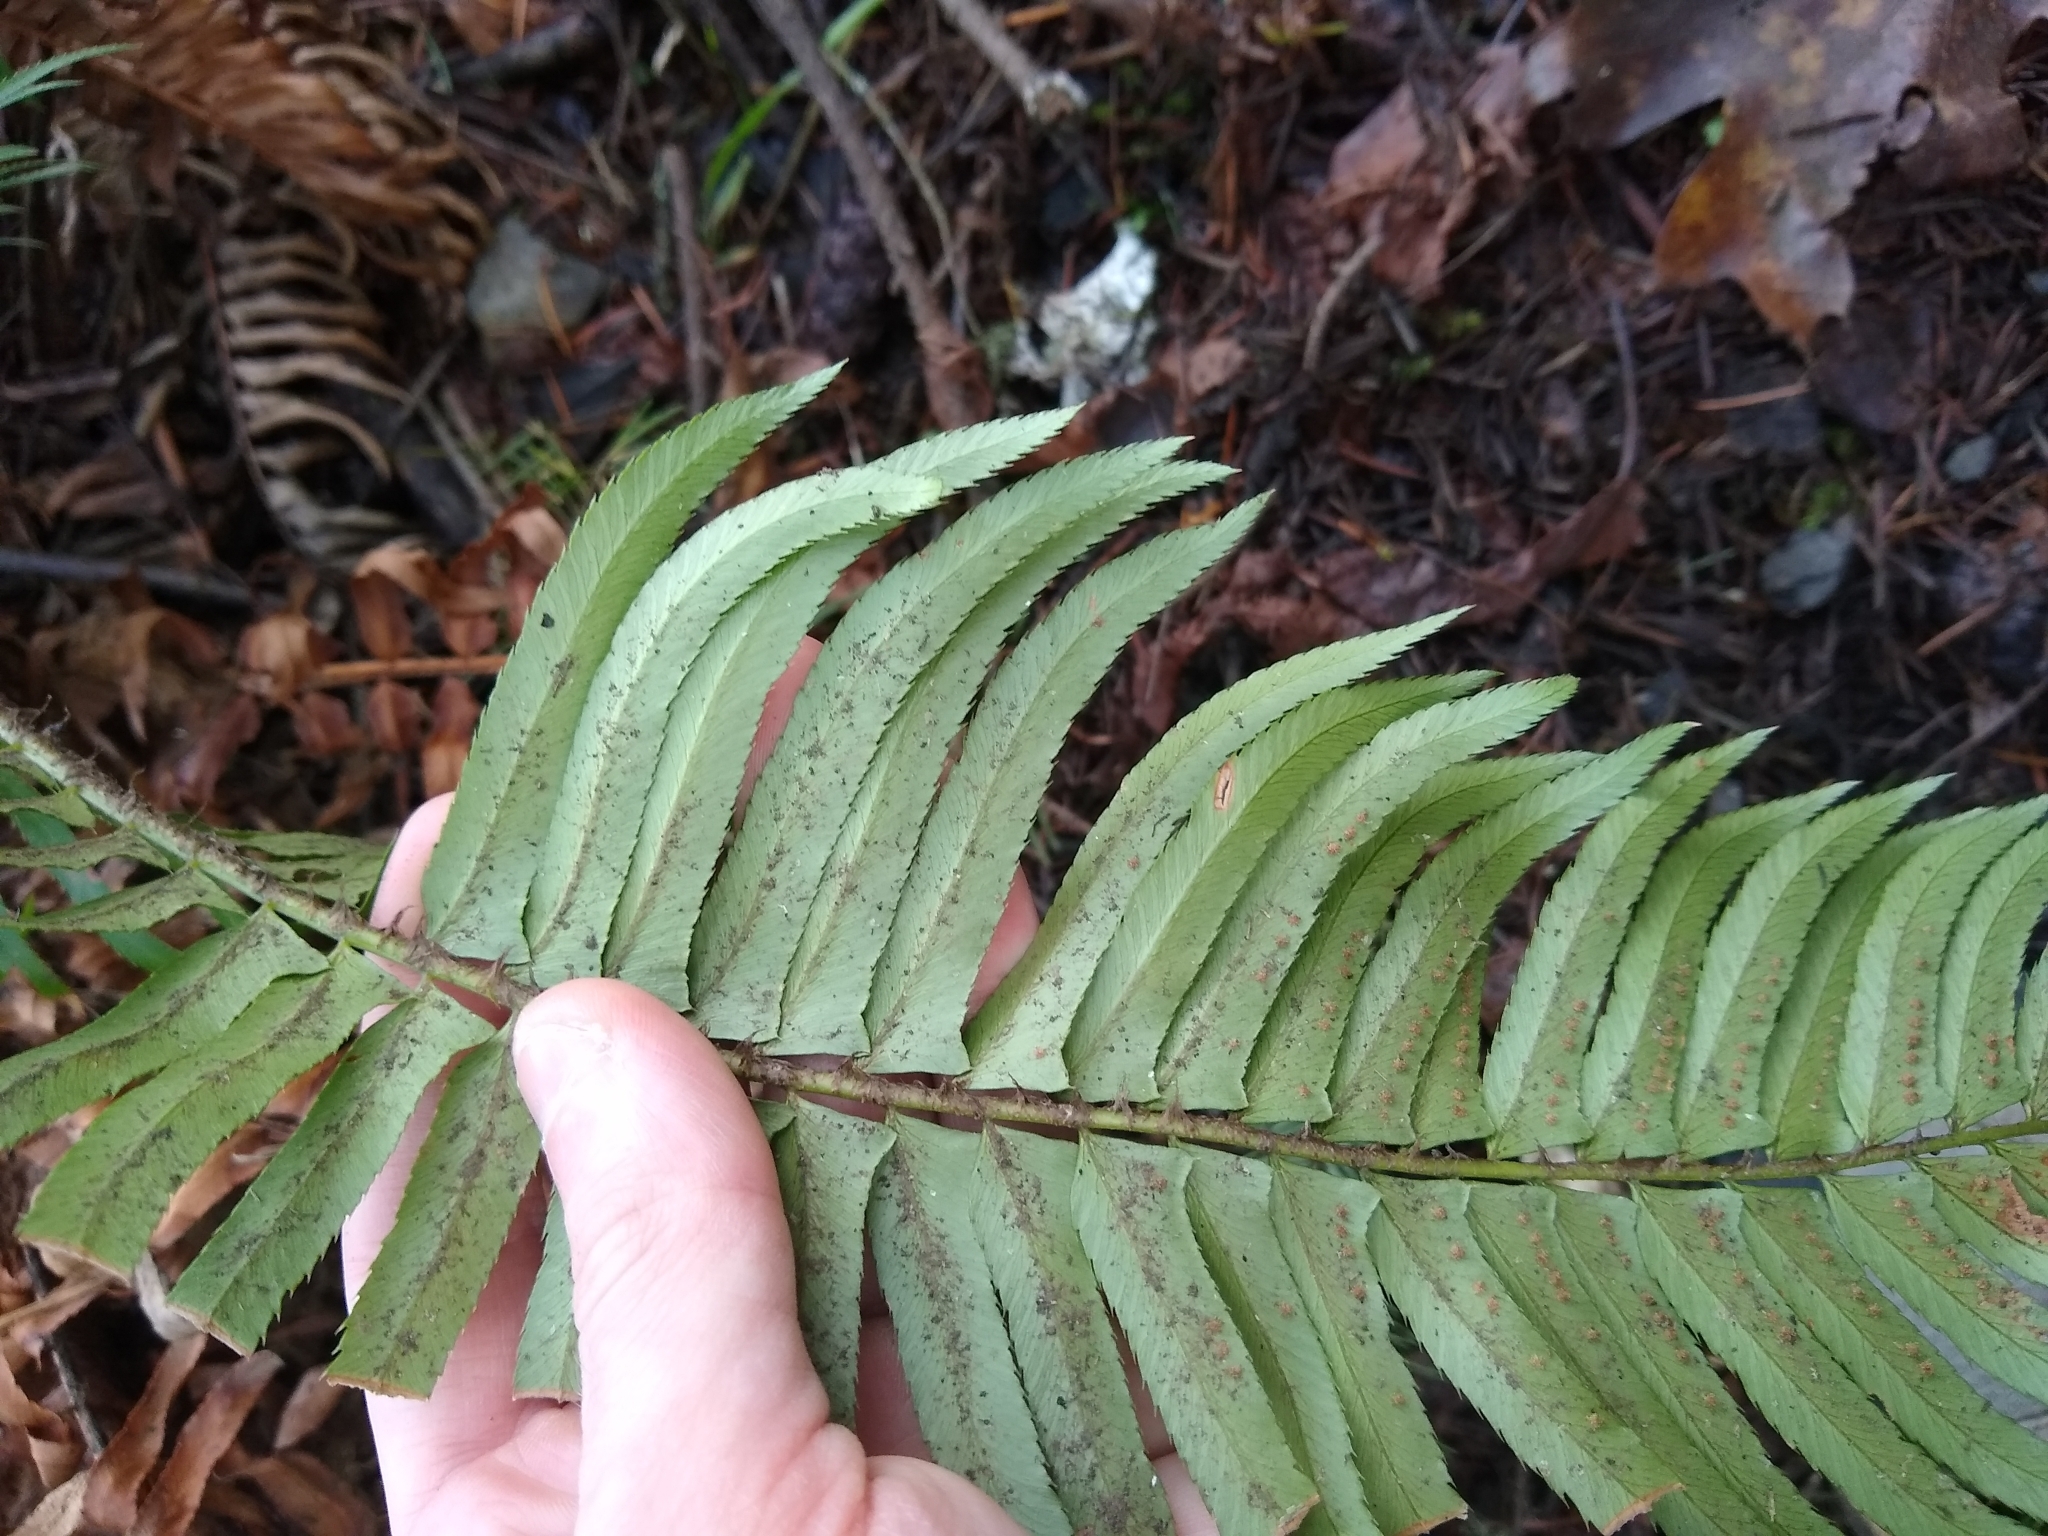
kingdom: Plantae
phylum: Tracheophyta
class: Polypodiopsida
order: Polypodiales
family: Dryopteridaceae
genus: Polystichum
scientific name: Polystichum munitum
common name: Western sword-fern
